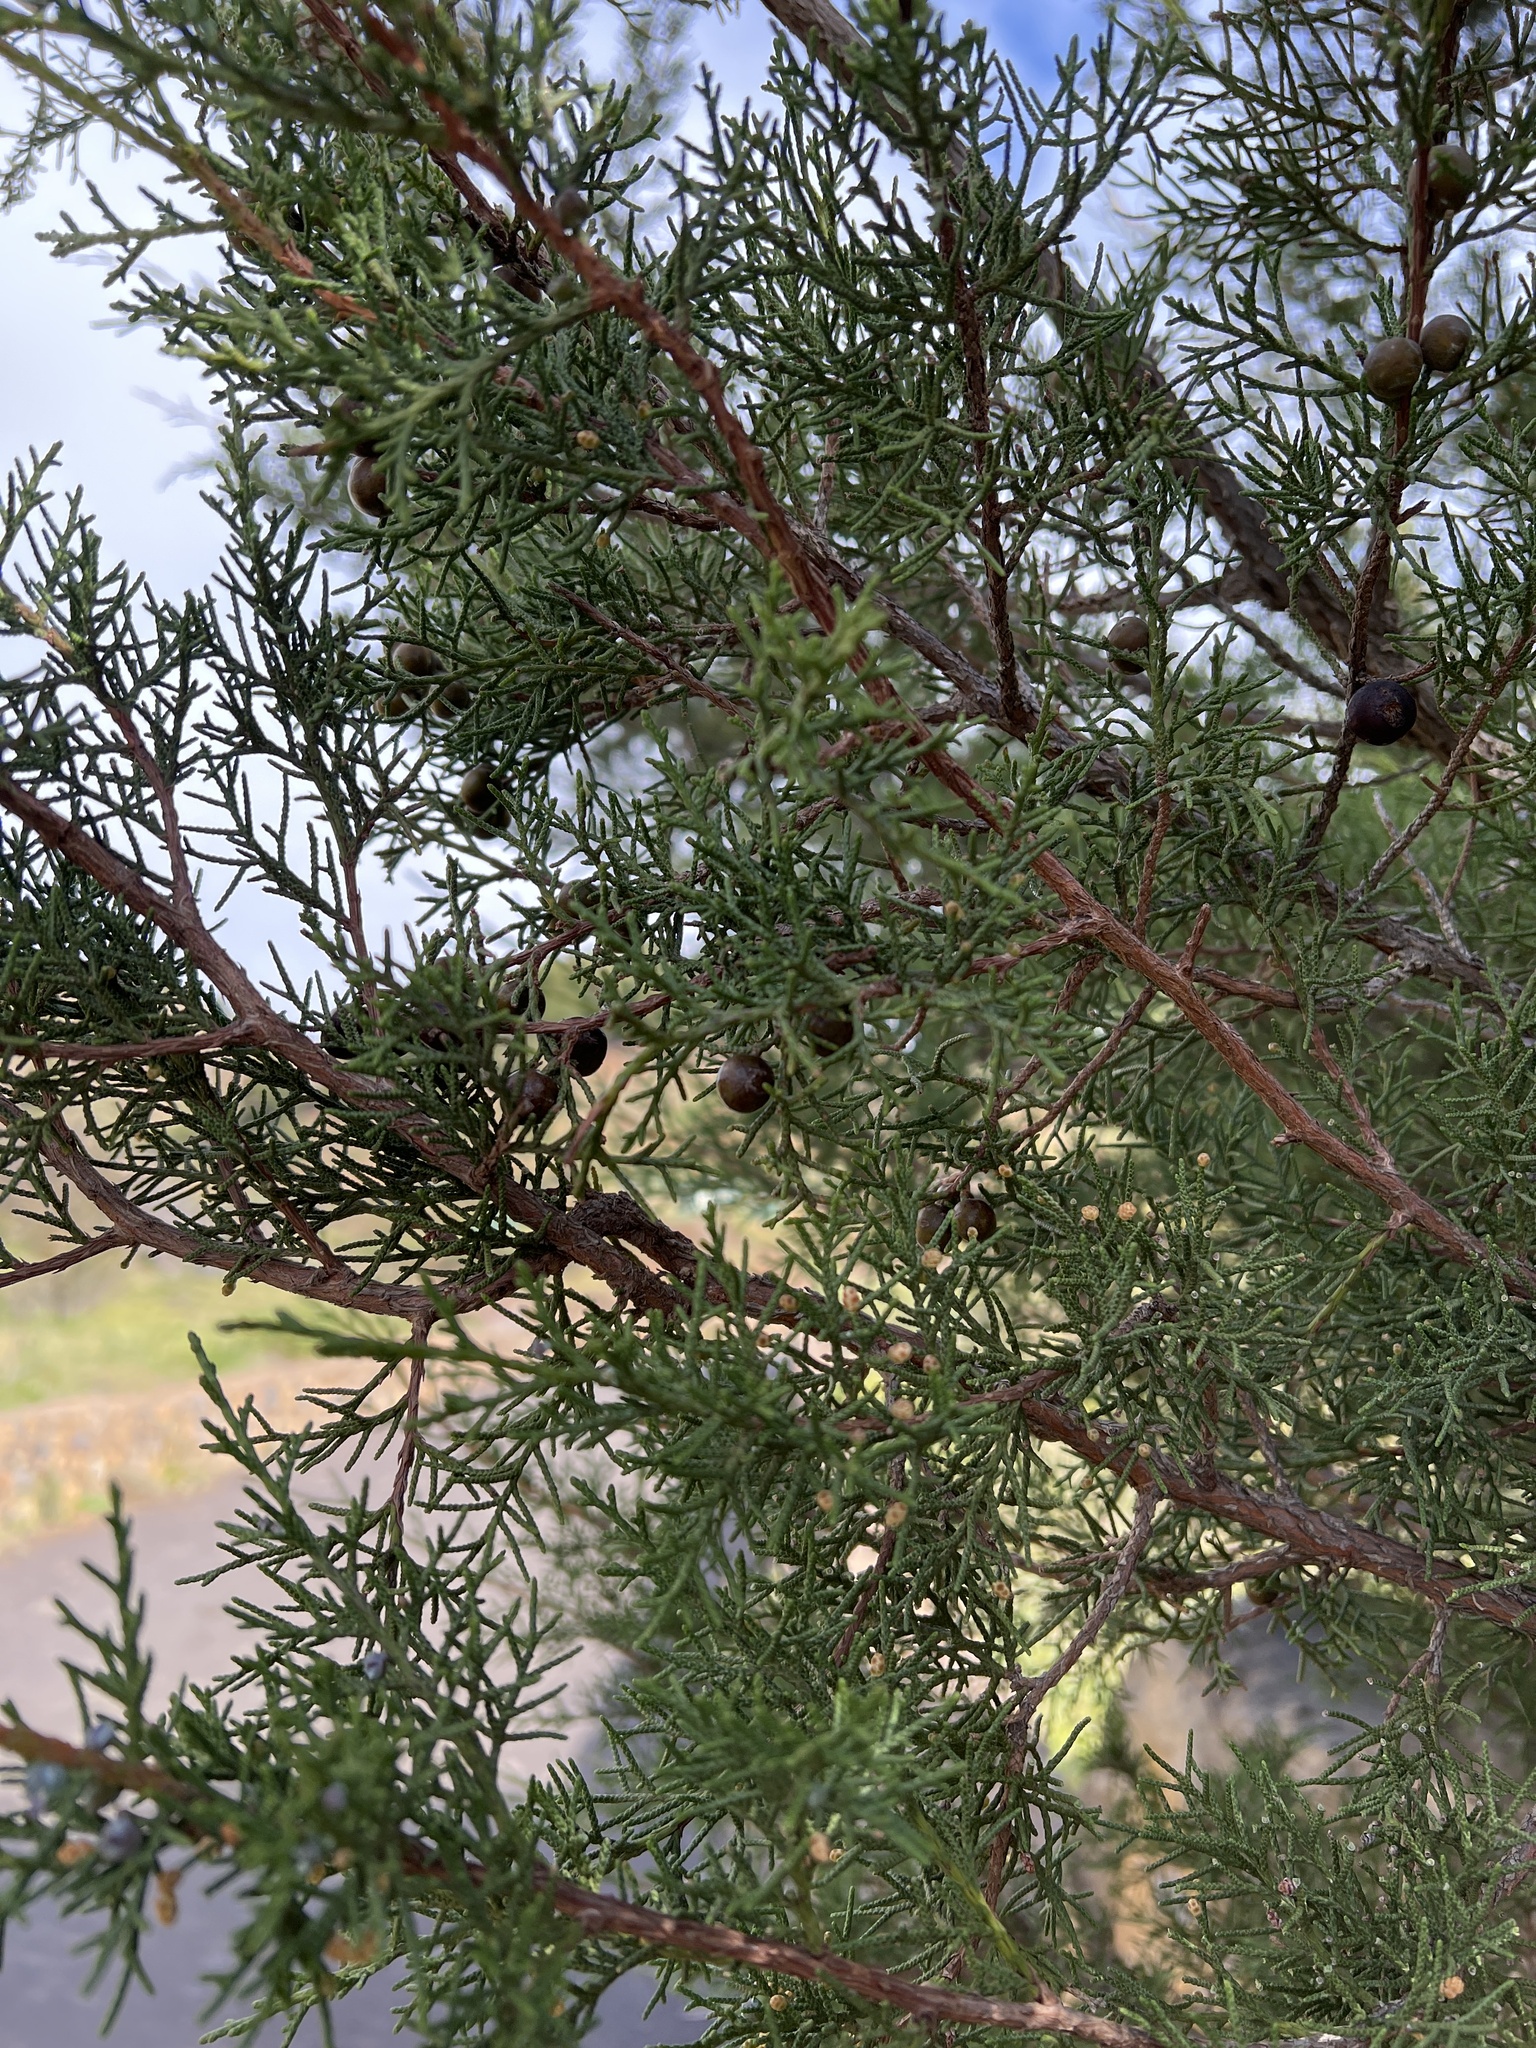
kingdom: Plantae
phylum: Tracheophyta
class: Pinopsida
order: Pinales
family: Cupressaceae
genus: Juniperus
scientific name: Juniperus canariensis
